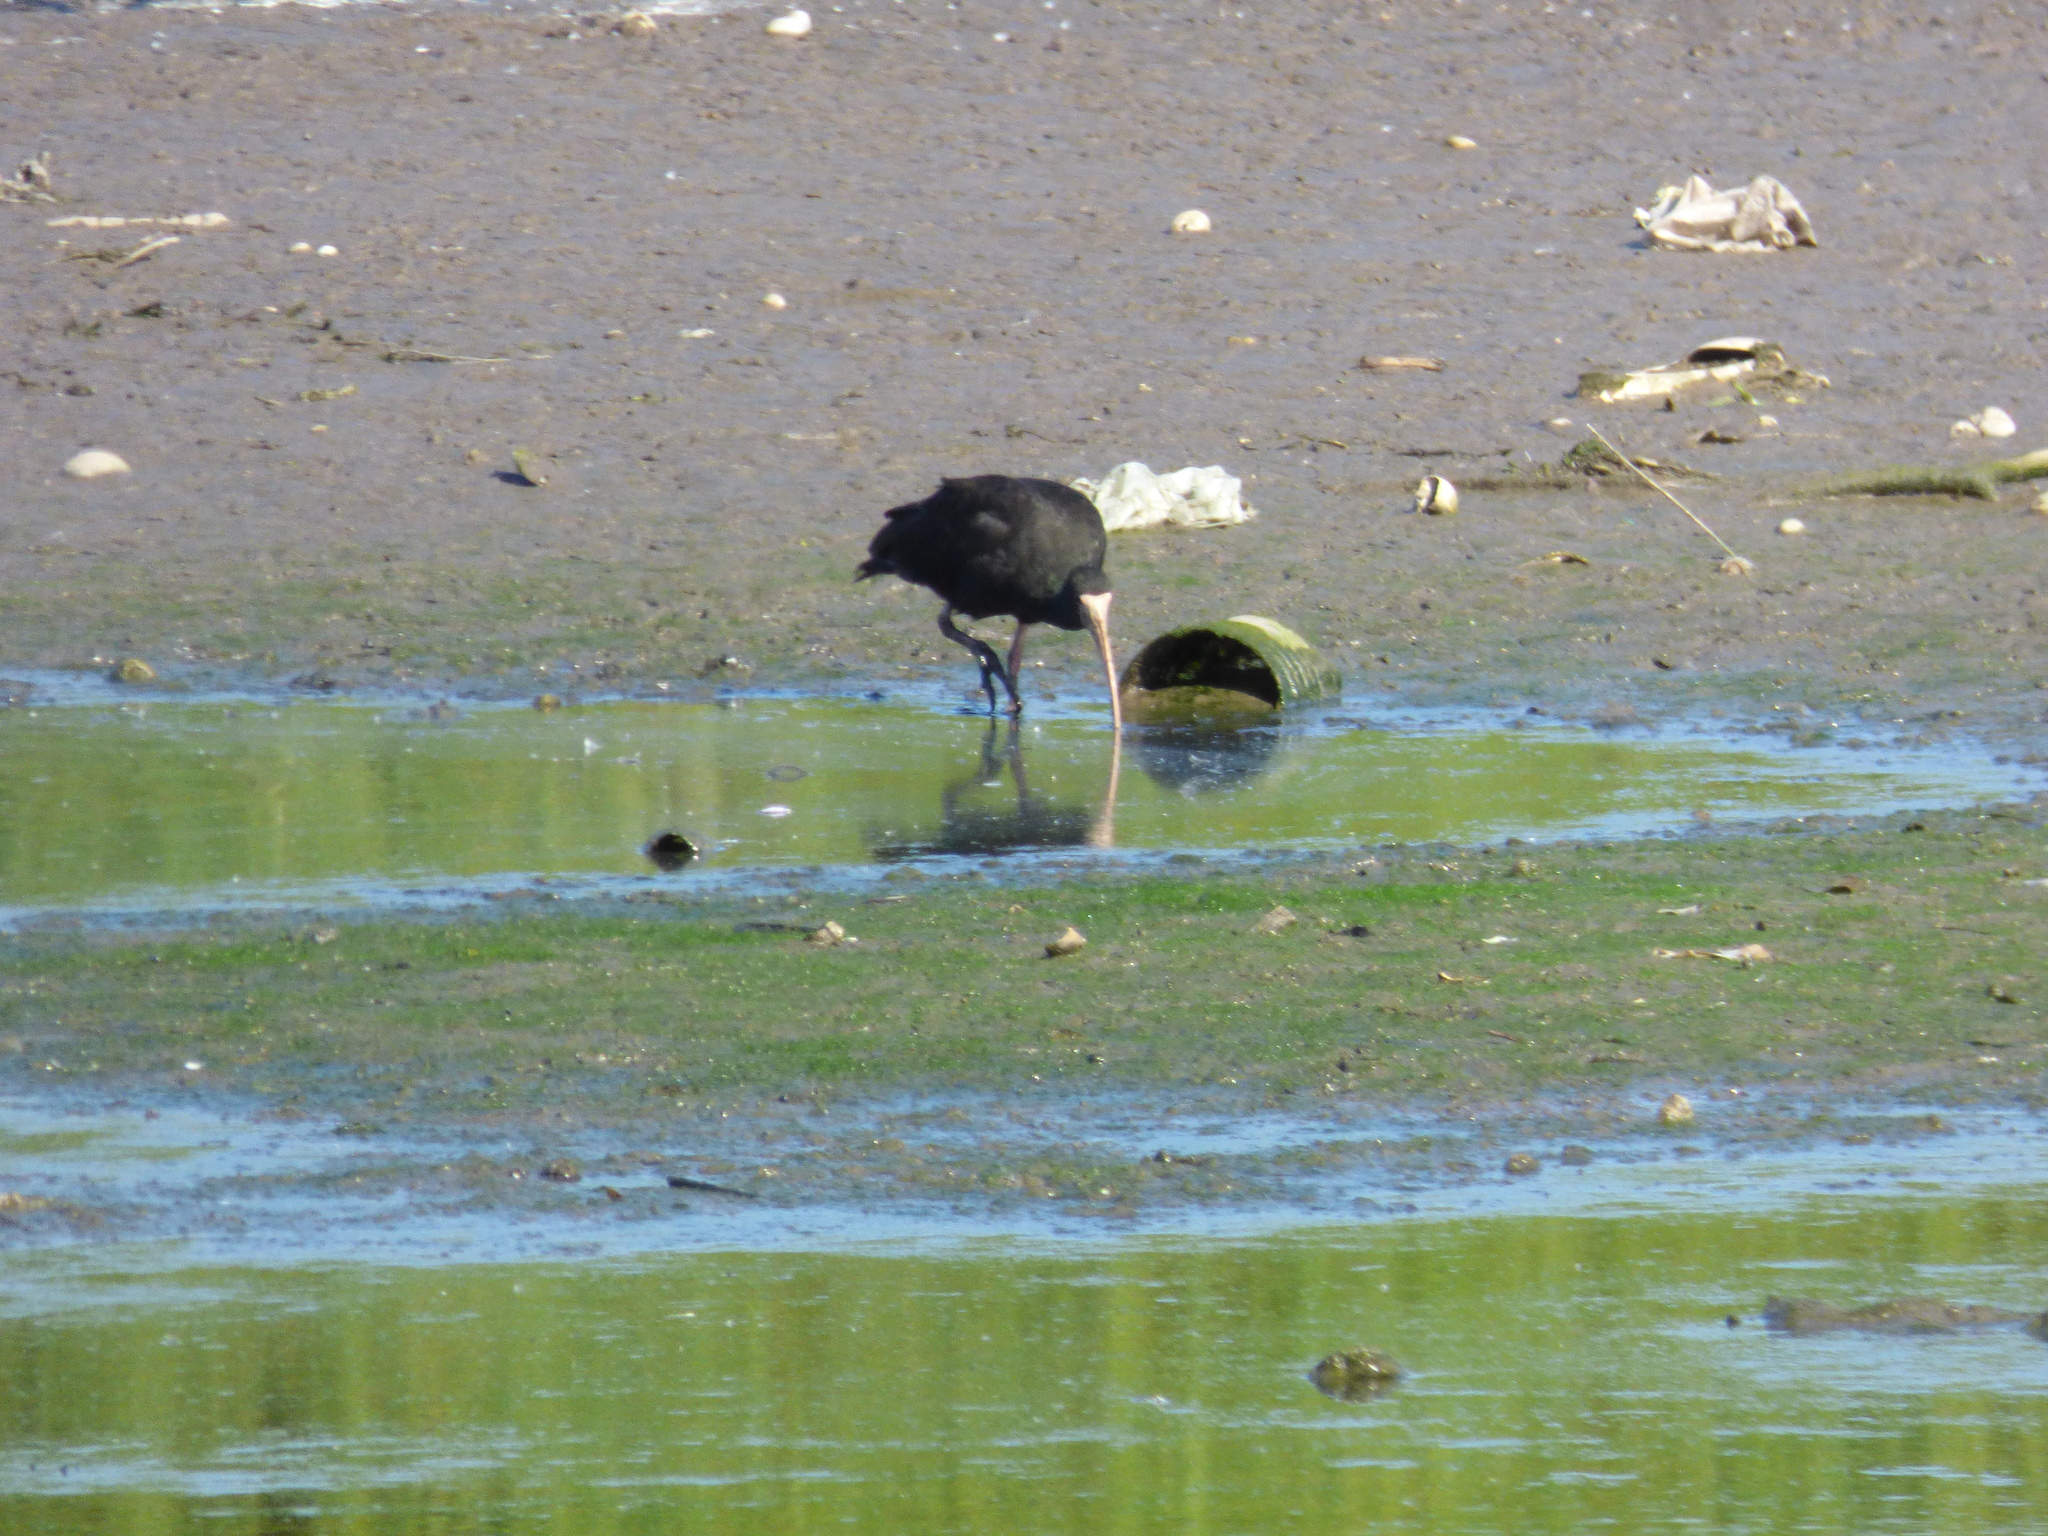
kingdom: Animalia
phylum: Chordata
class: Aves
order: Pelecaniformes
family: Threskiornithidae
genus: Phimosus
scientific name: Phimosus infuscatus
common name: Bare-faced ibis
